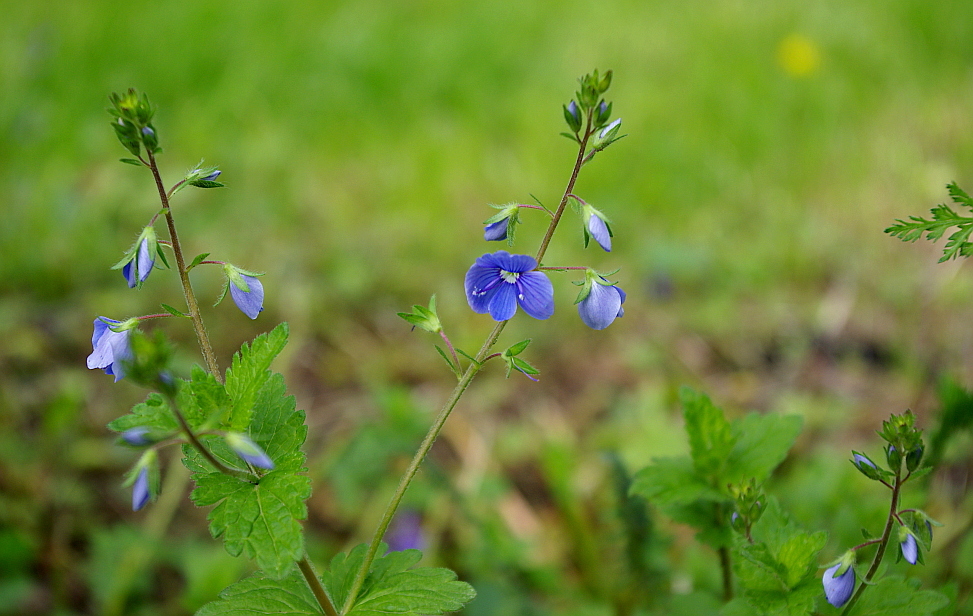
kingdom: Plantae
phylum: Tracheophyta
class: Magnoliopsida
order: Lamiales
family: Plantaginaceae
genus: Veronica
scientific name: Veronica chamaedrys
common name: Germander speedwell
